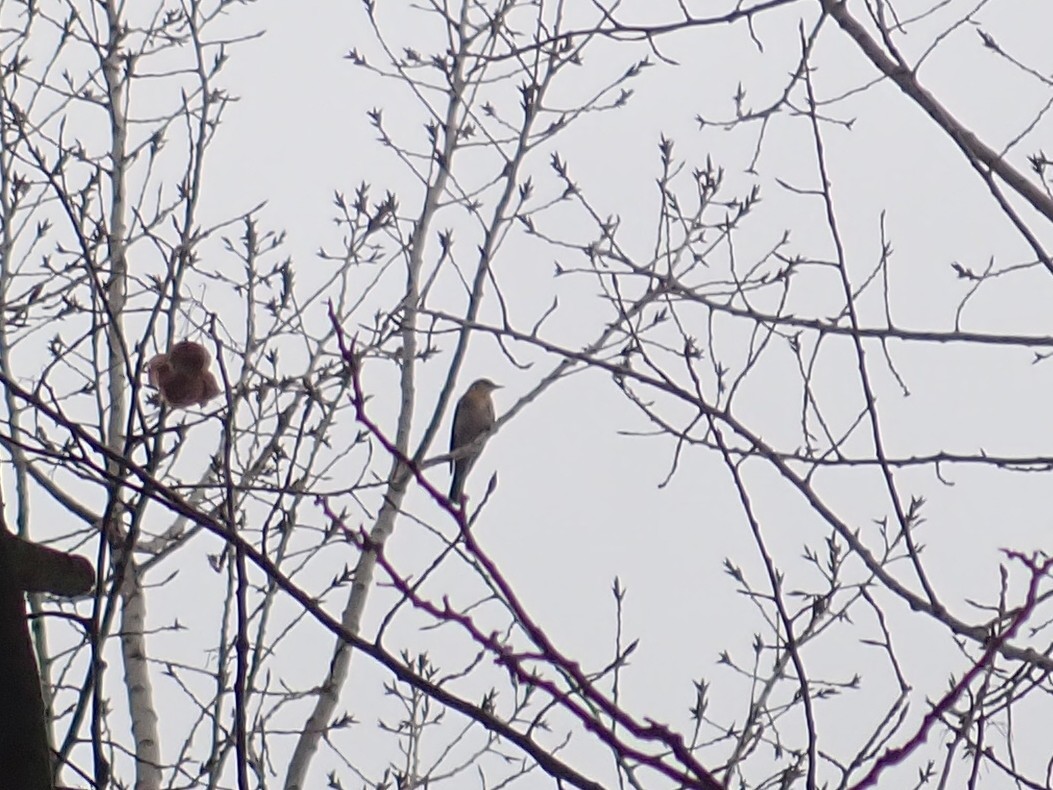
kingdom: Animalia
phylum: Chordata
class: Aves
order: Passeriformes
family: Turdidae
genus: Turdus
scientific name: Turdus pilaris
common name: Fieldfare
